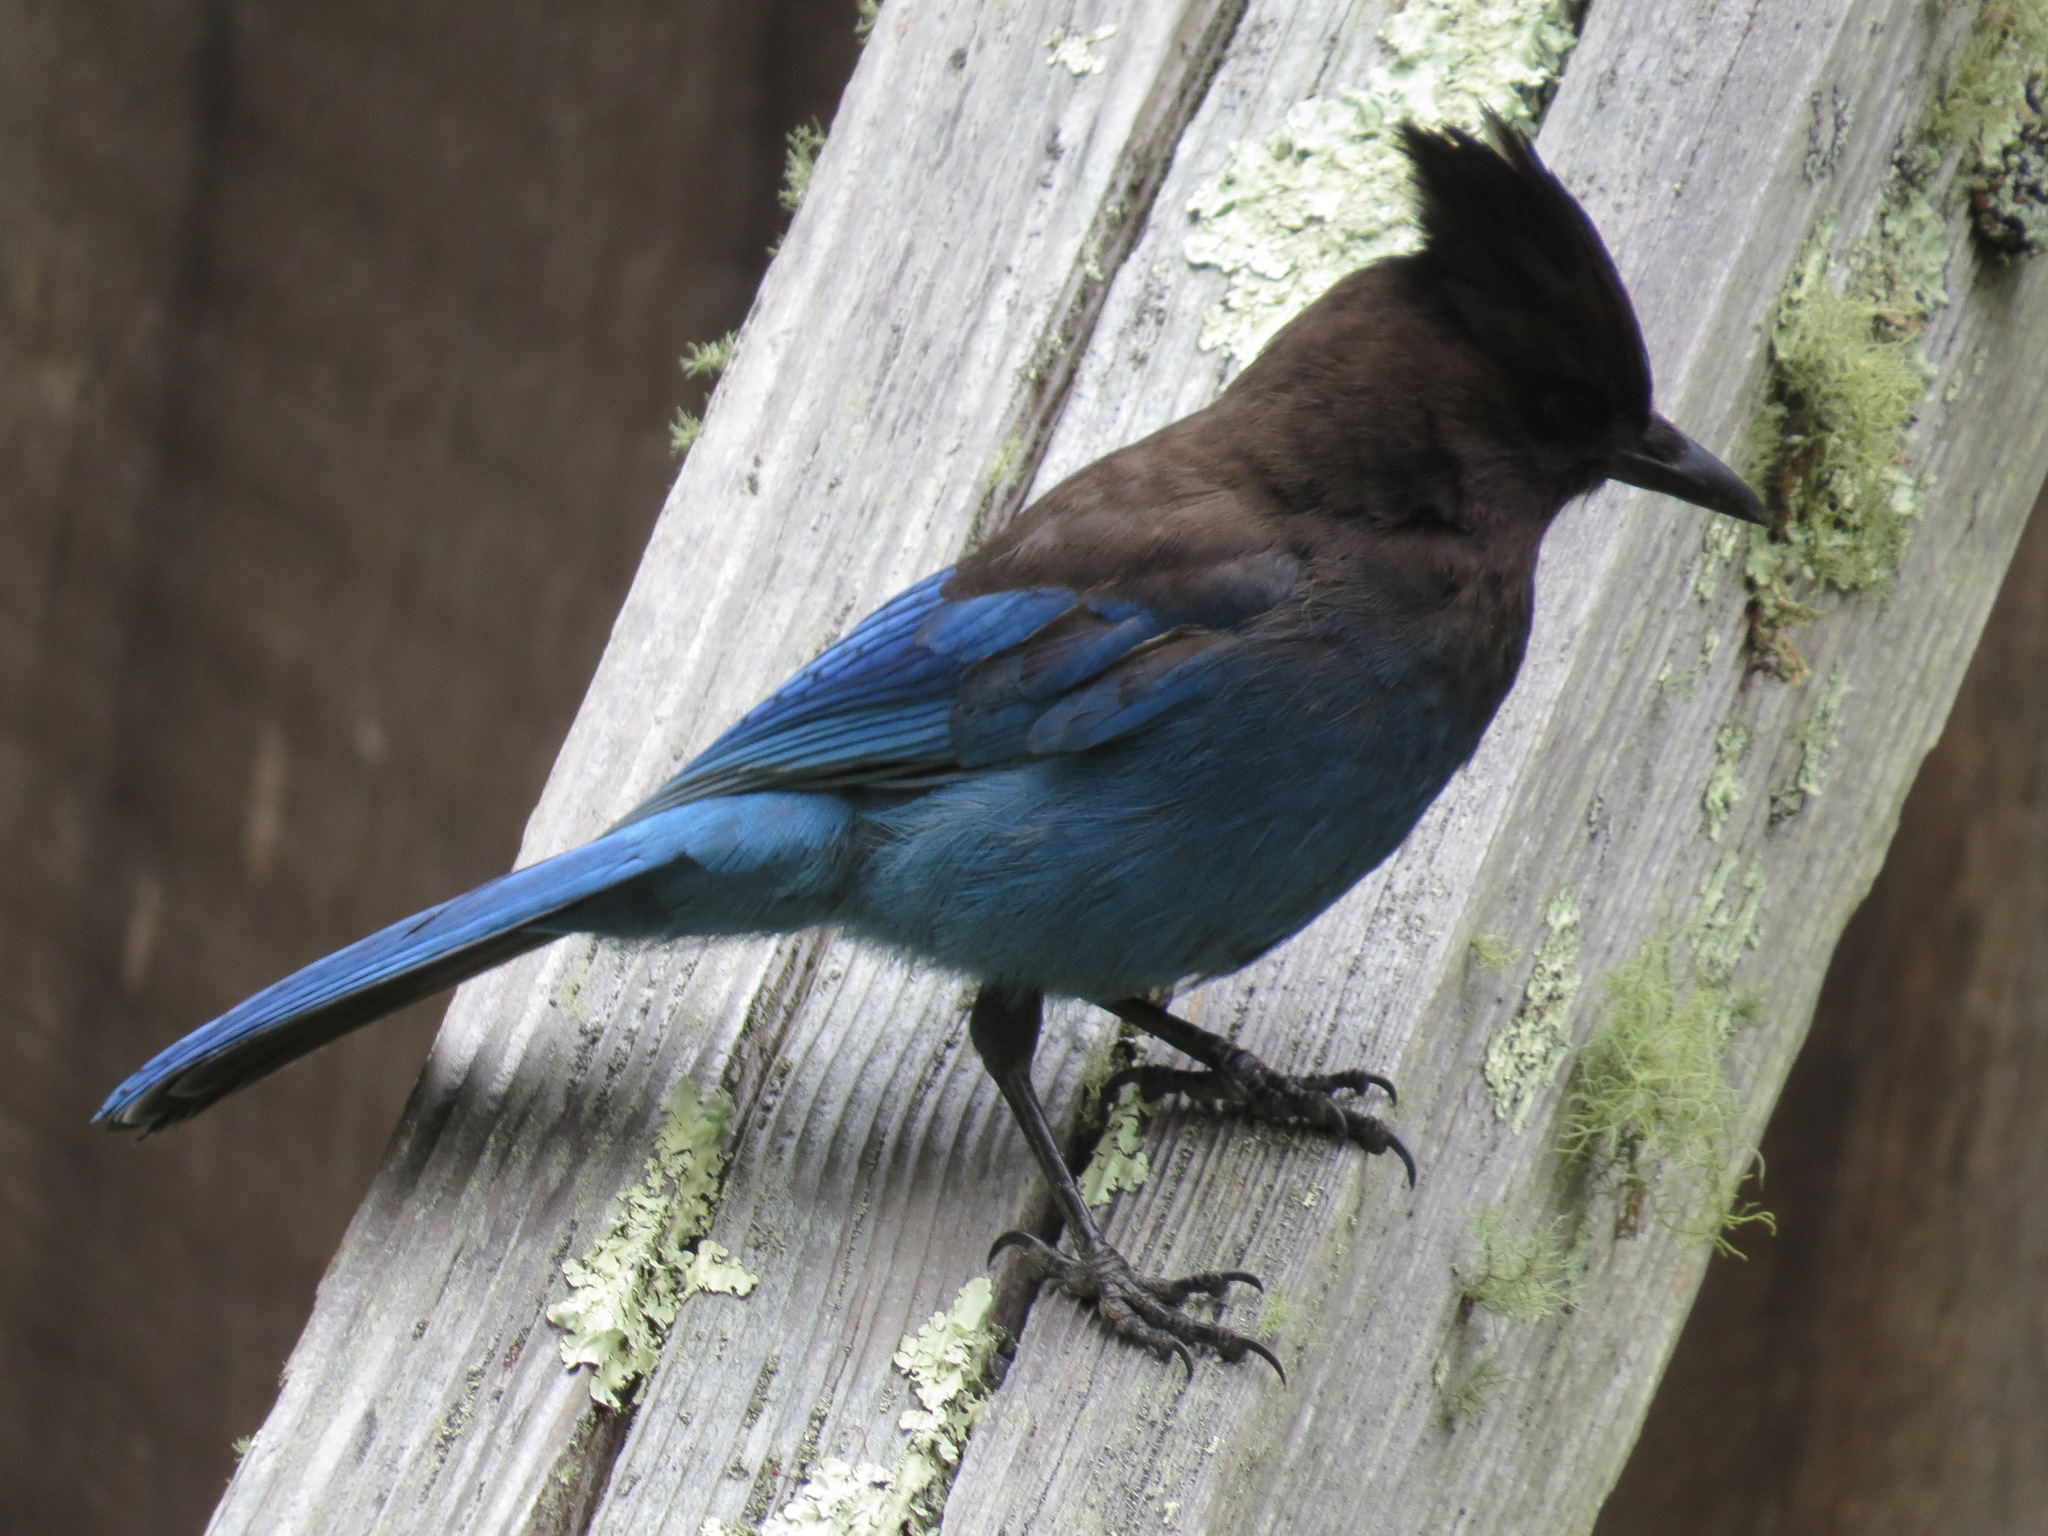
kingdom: Animalia
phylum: Chordata
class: Aves
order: Passeriformes
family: Corvidae
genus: Cyanocitta
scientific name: Cyanocitta stelleri
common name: Steller's jay
